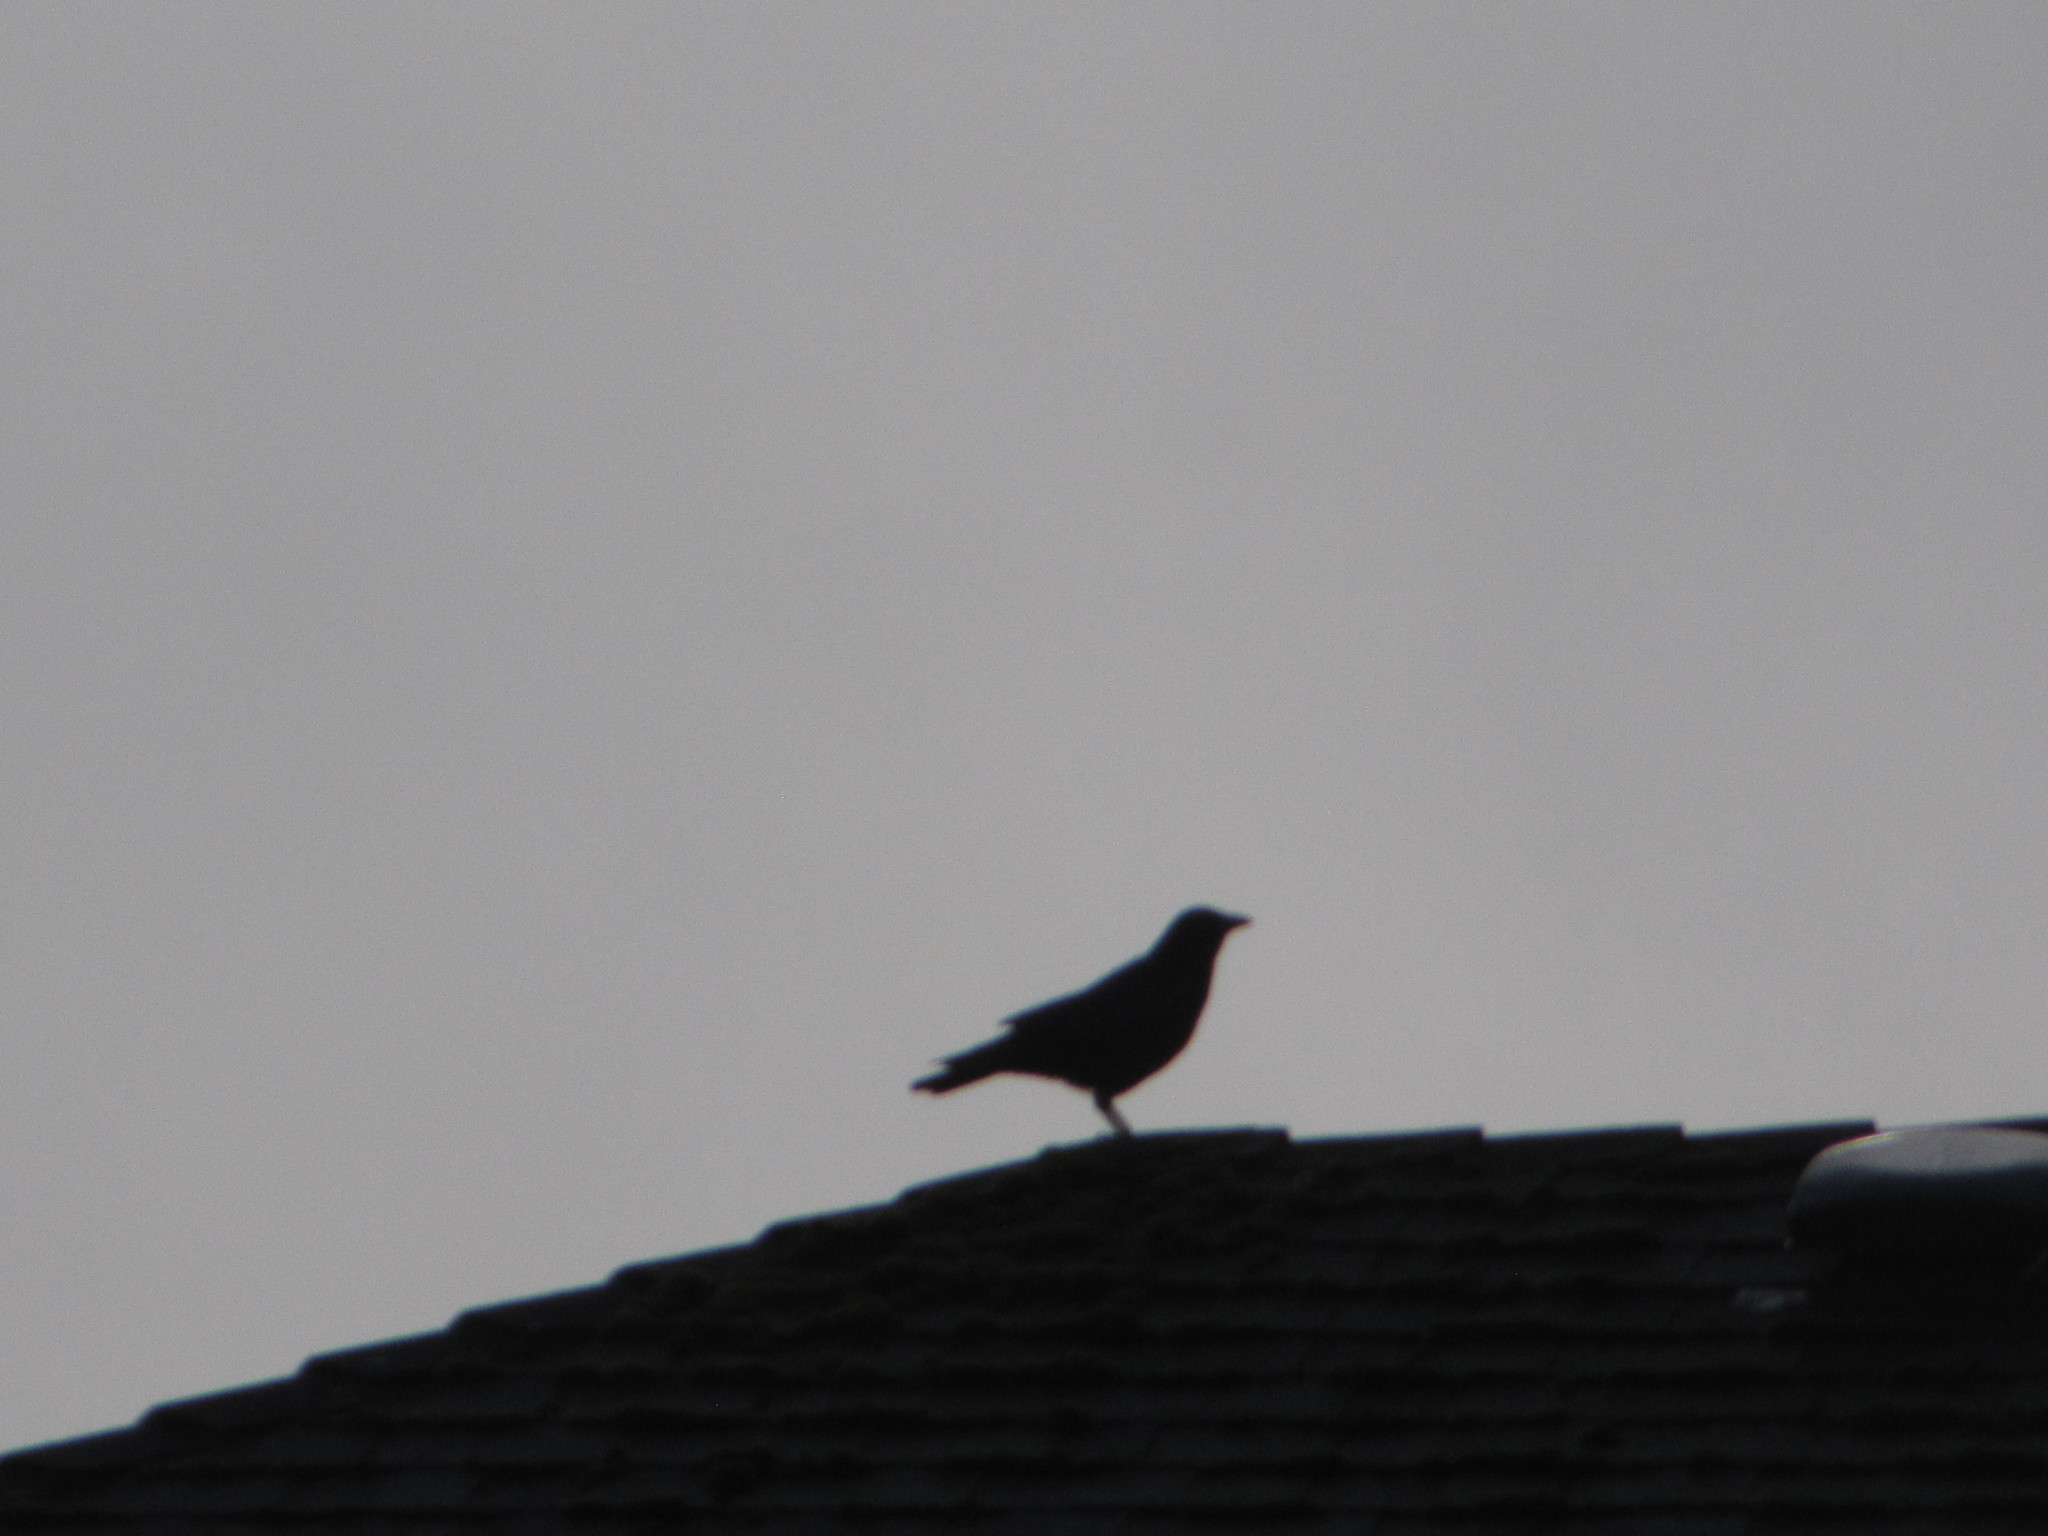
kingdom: Animalia
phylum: Chordata
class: Aves
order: Passeriformes
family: Corvidae
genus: Corvus
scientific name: Corvus brachyrhynchos
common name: American crow
